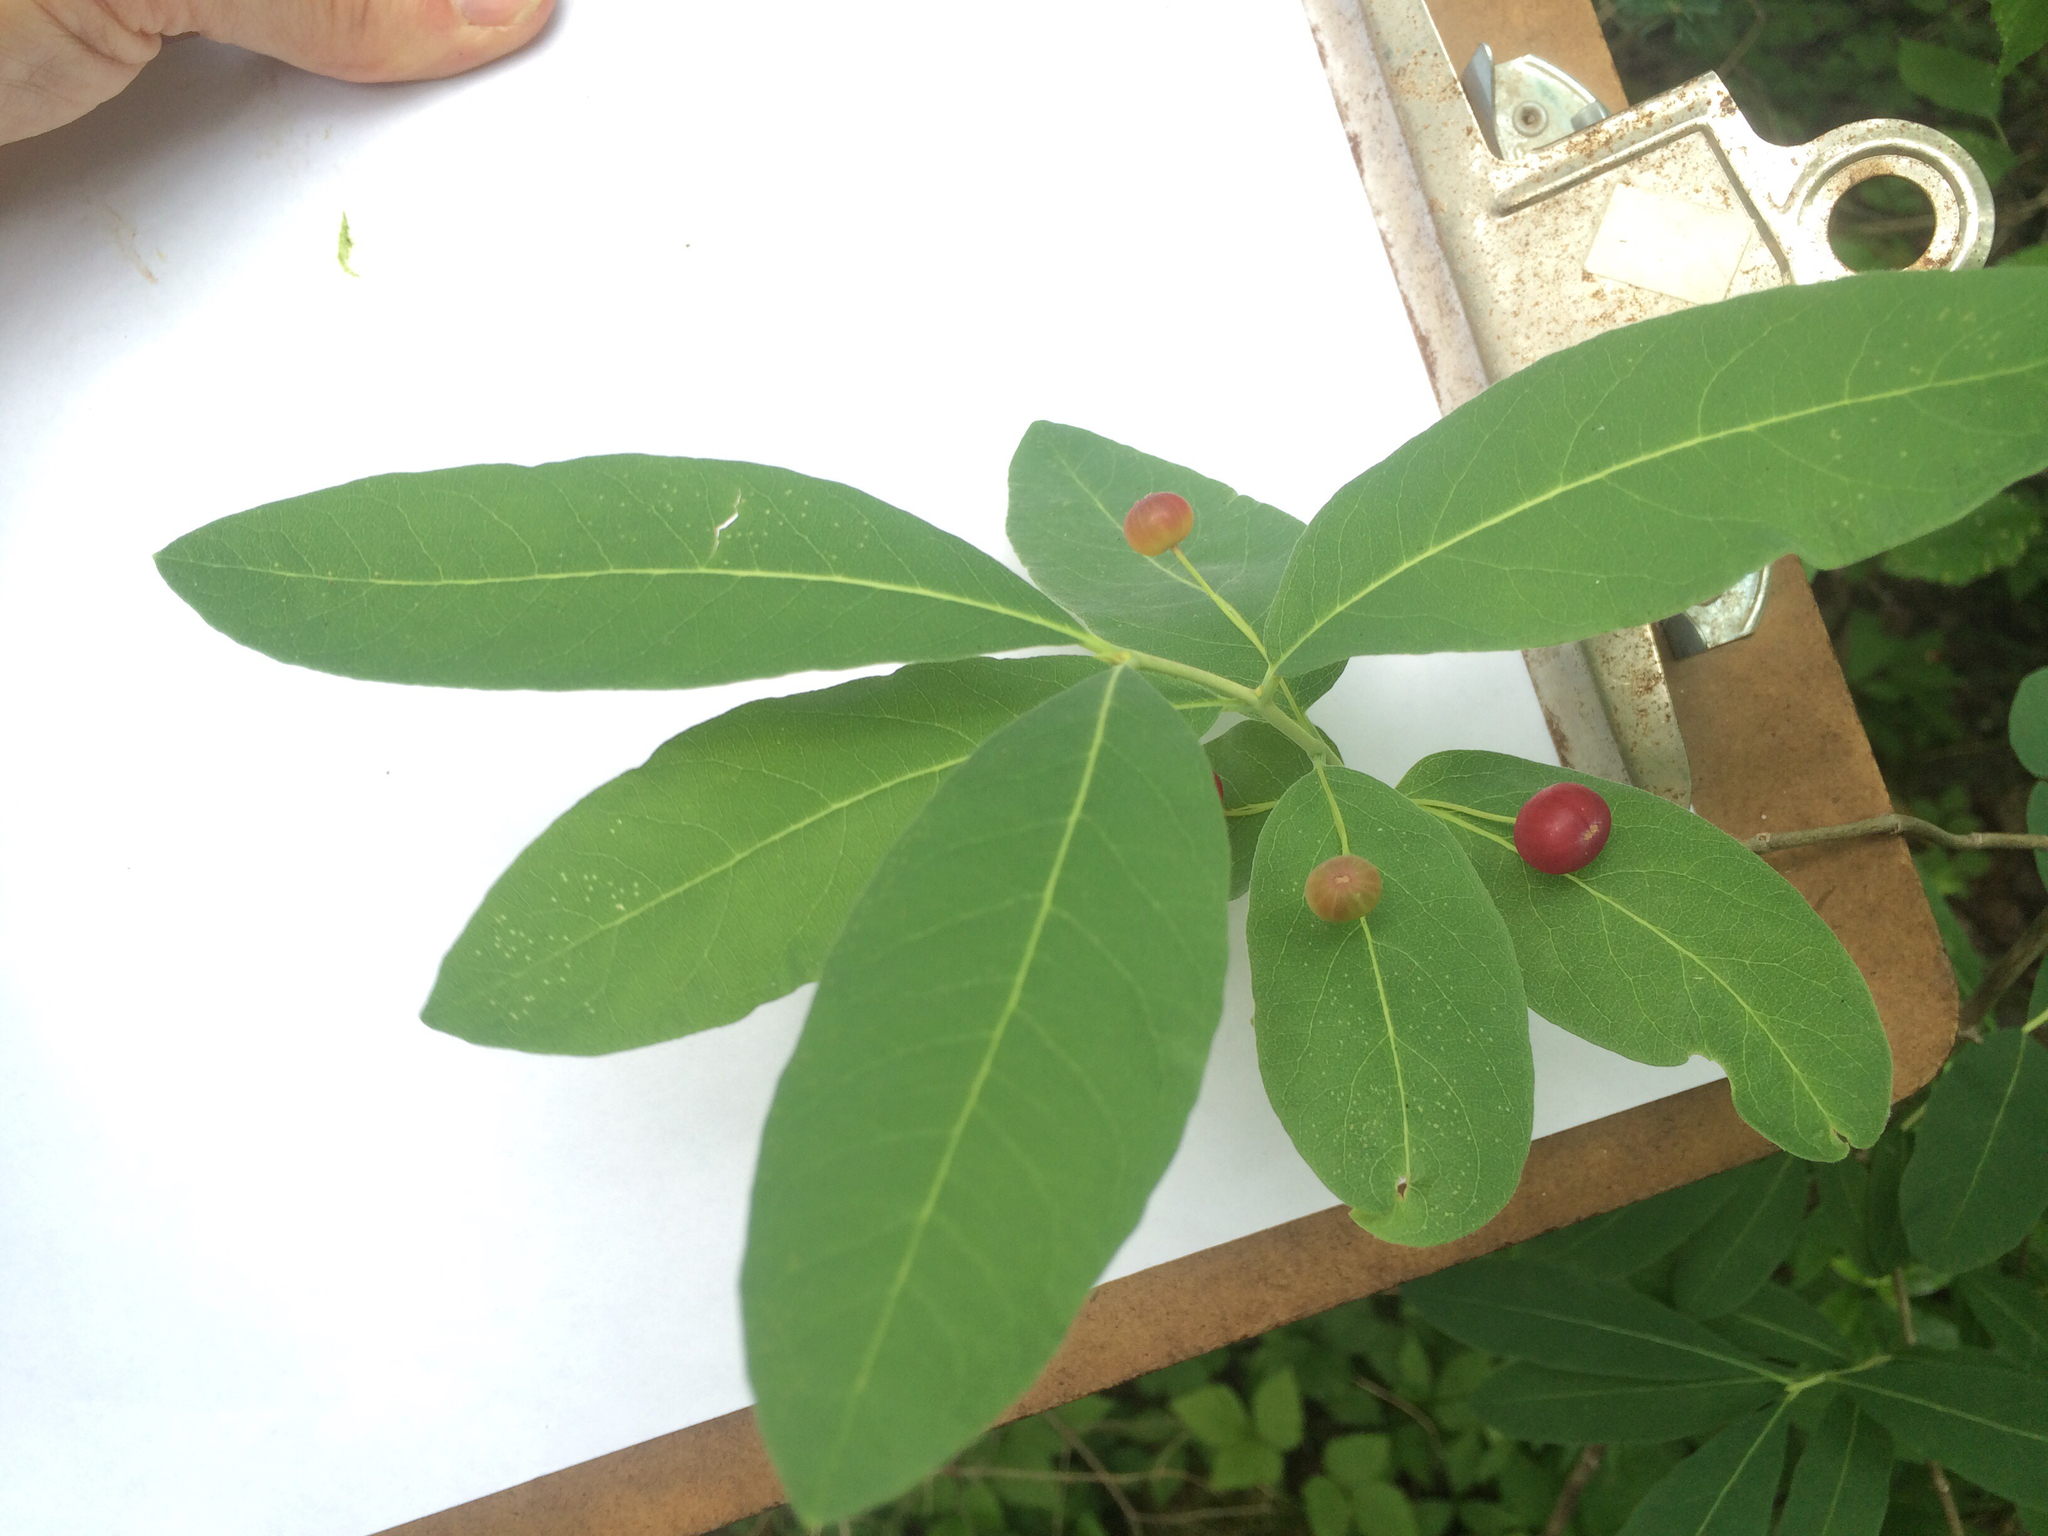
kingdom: Plantae
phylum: Tracheophyta
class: Magnoliopsida
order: Dipsacales
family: Caprifoliaceae
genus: Lonicera
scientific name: Lonicera oblongifolia
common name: Swamp fly honeysuckle
